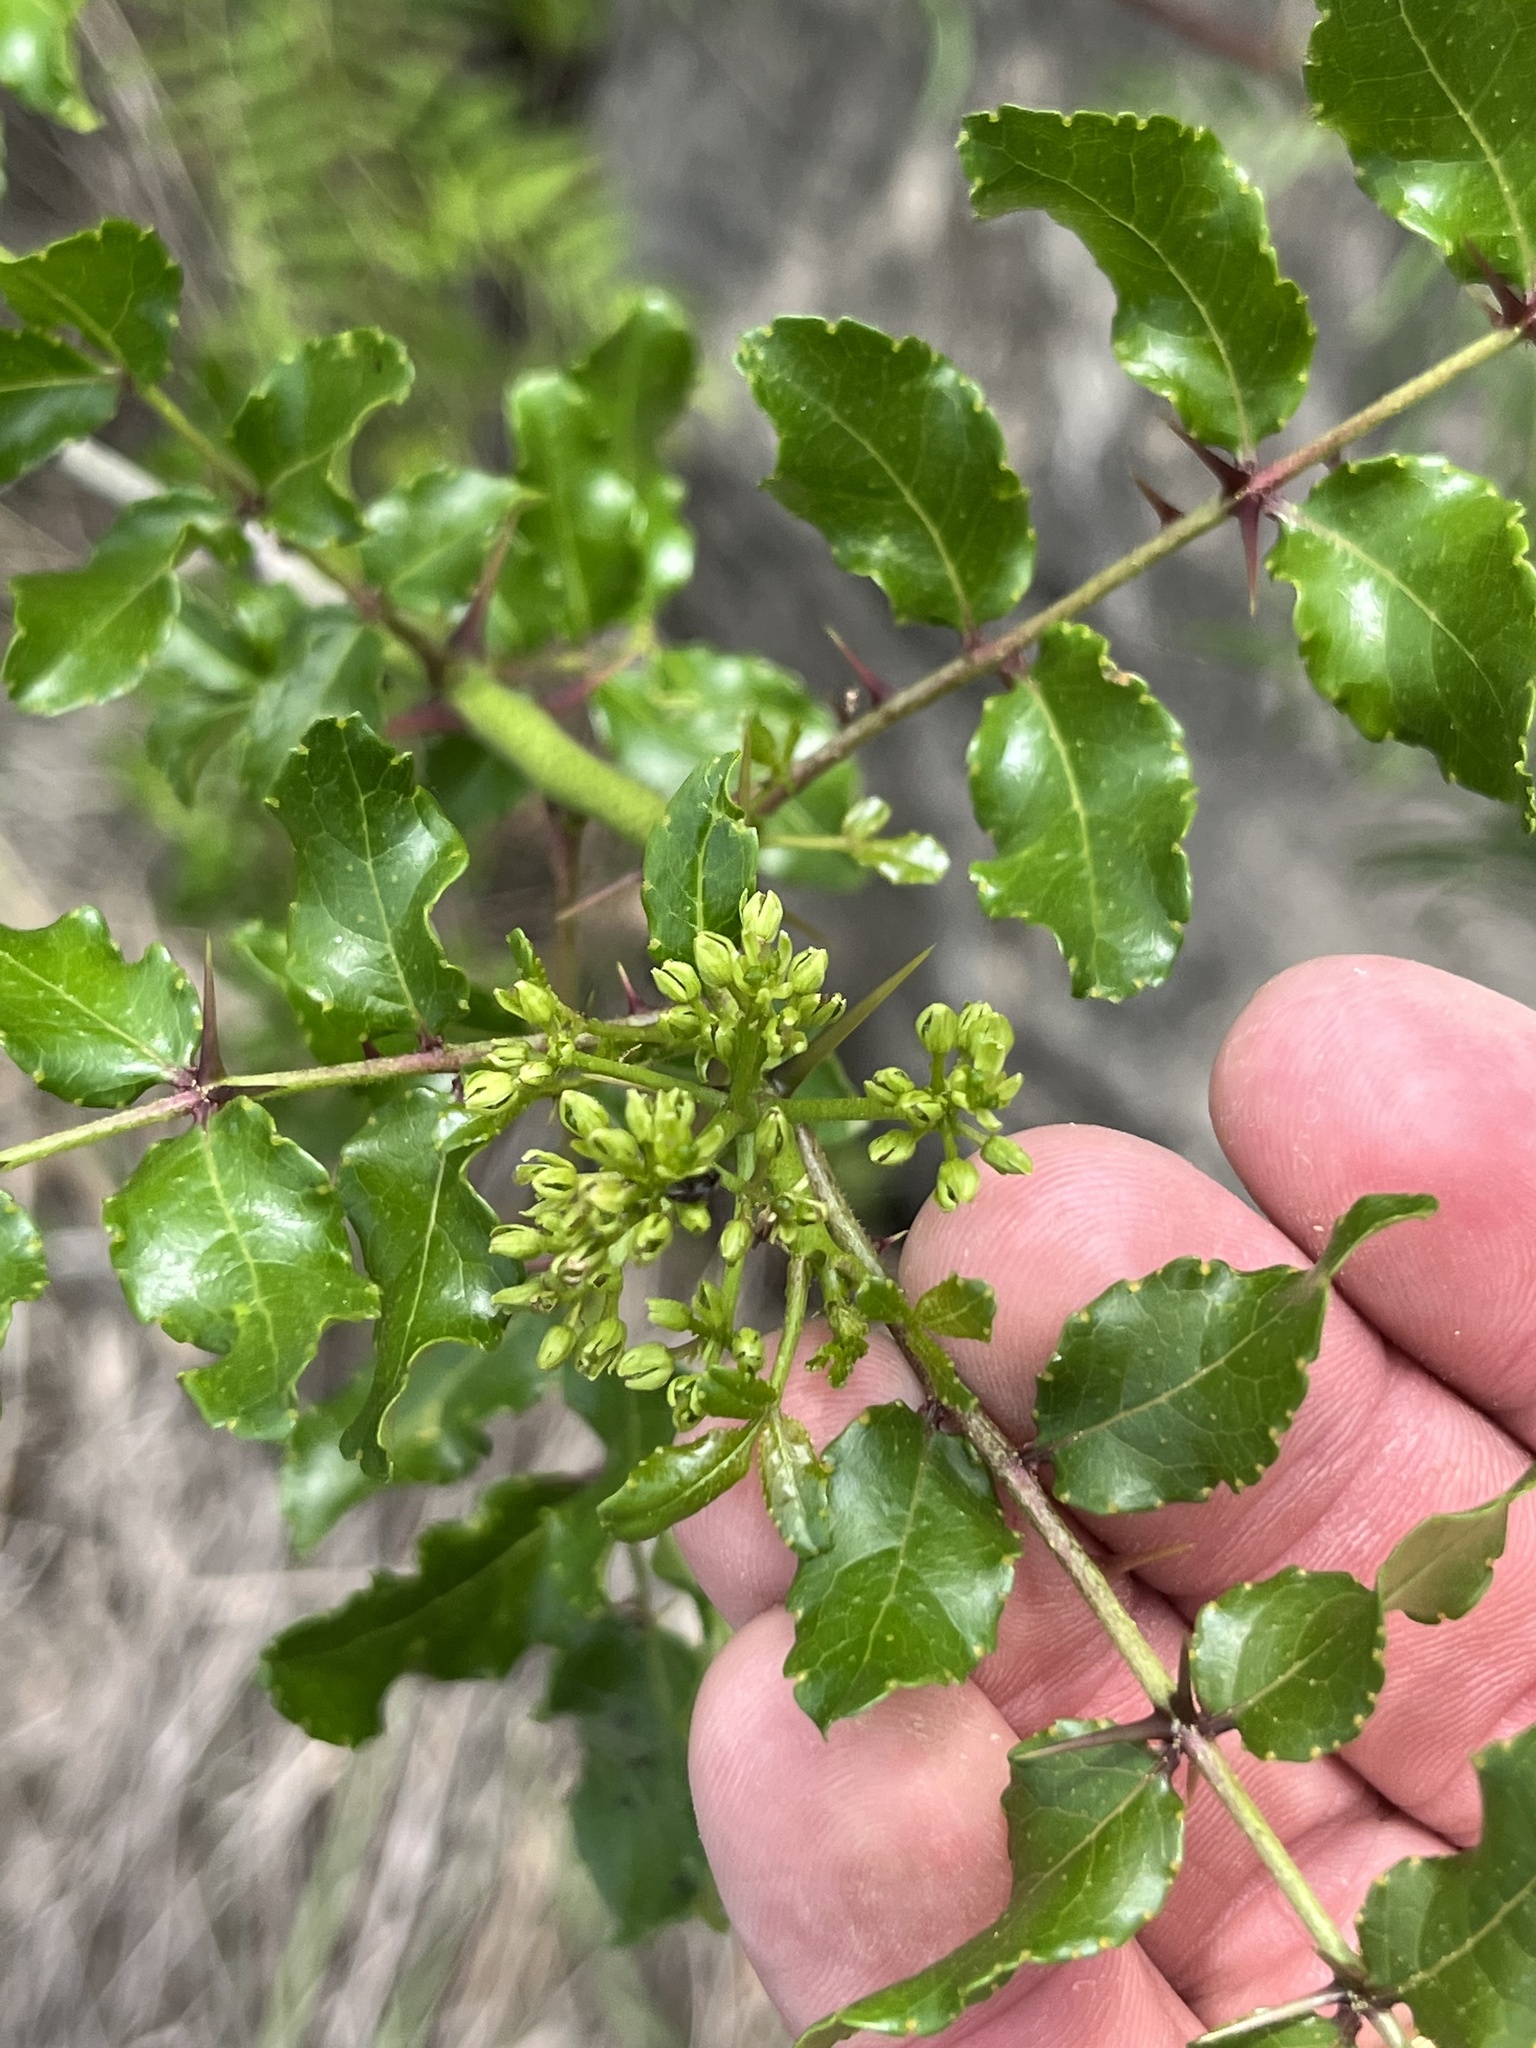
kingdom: Plantae
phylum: Tracheophyta
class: Magnoliopsida
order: Sapindales
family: Rutaceae
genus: Zanthoxylum
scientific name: Zanthoxylum clava-herculis
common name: Hercules'-club
